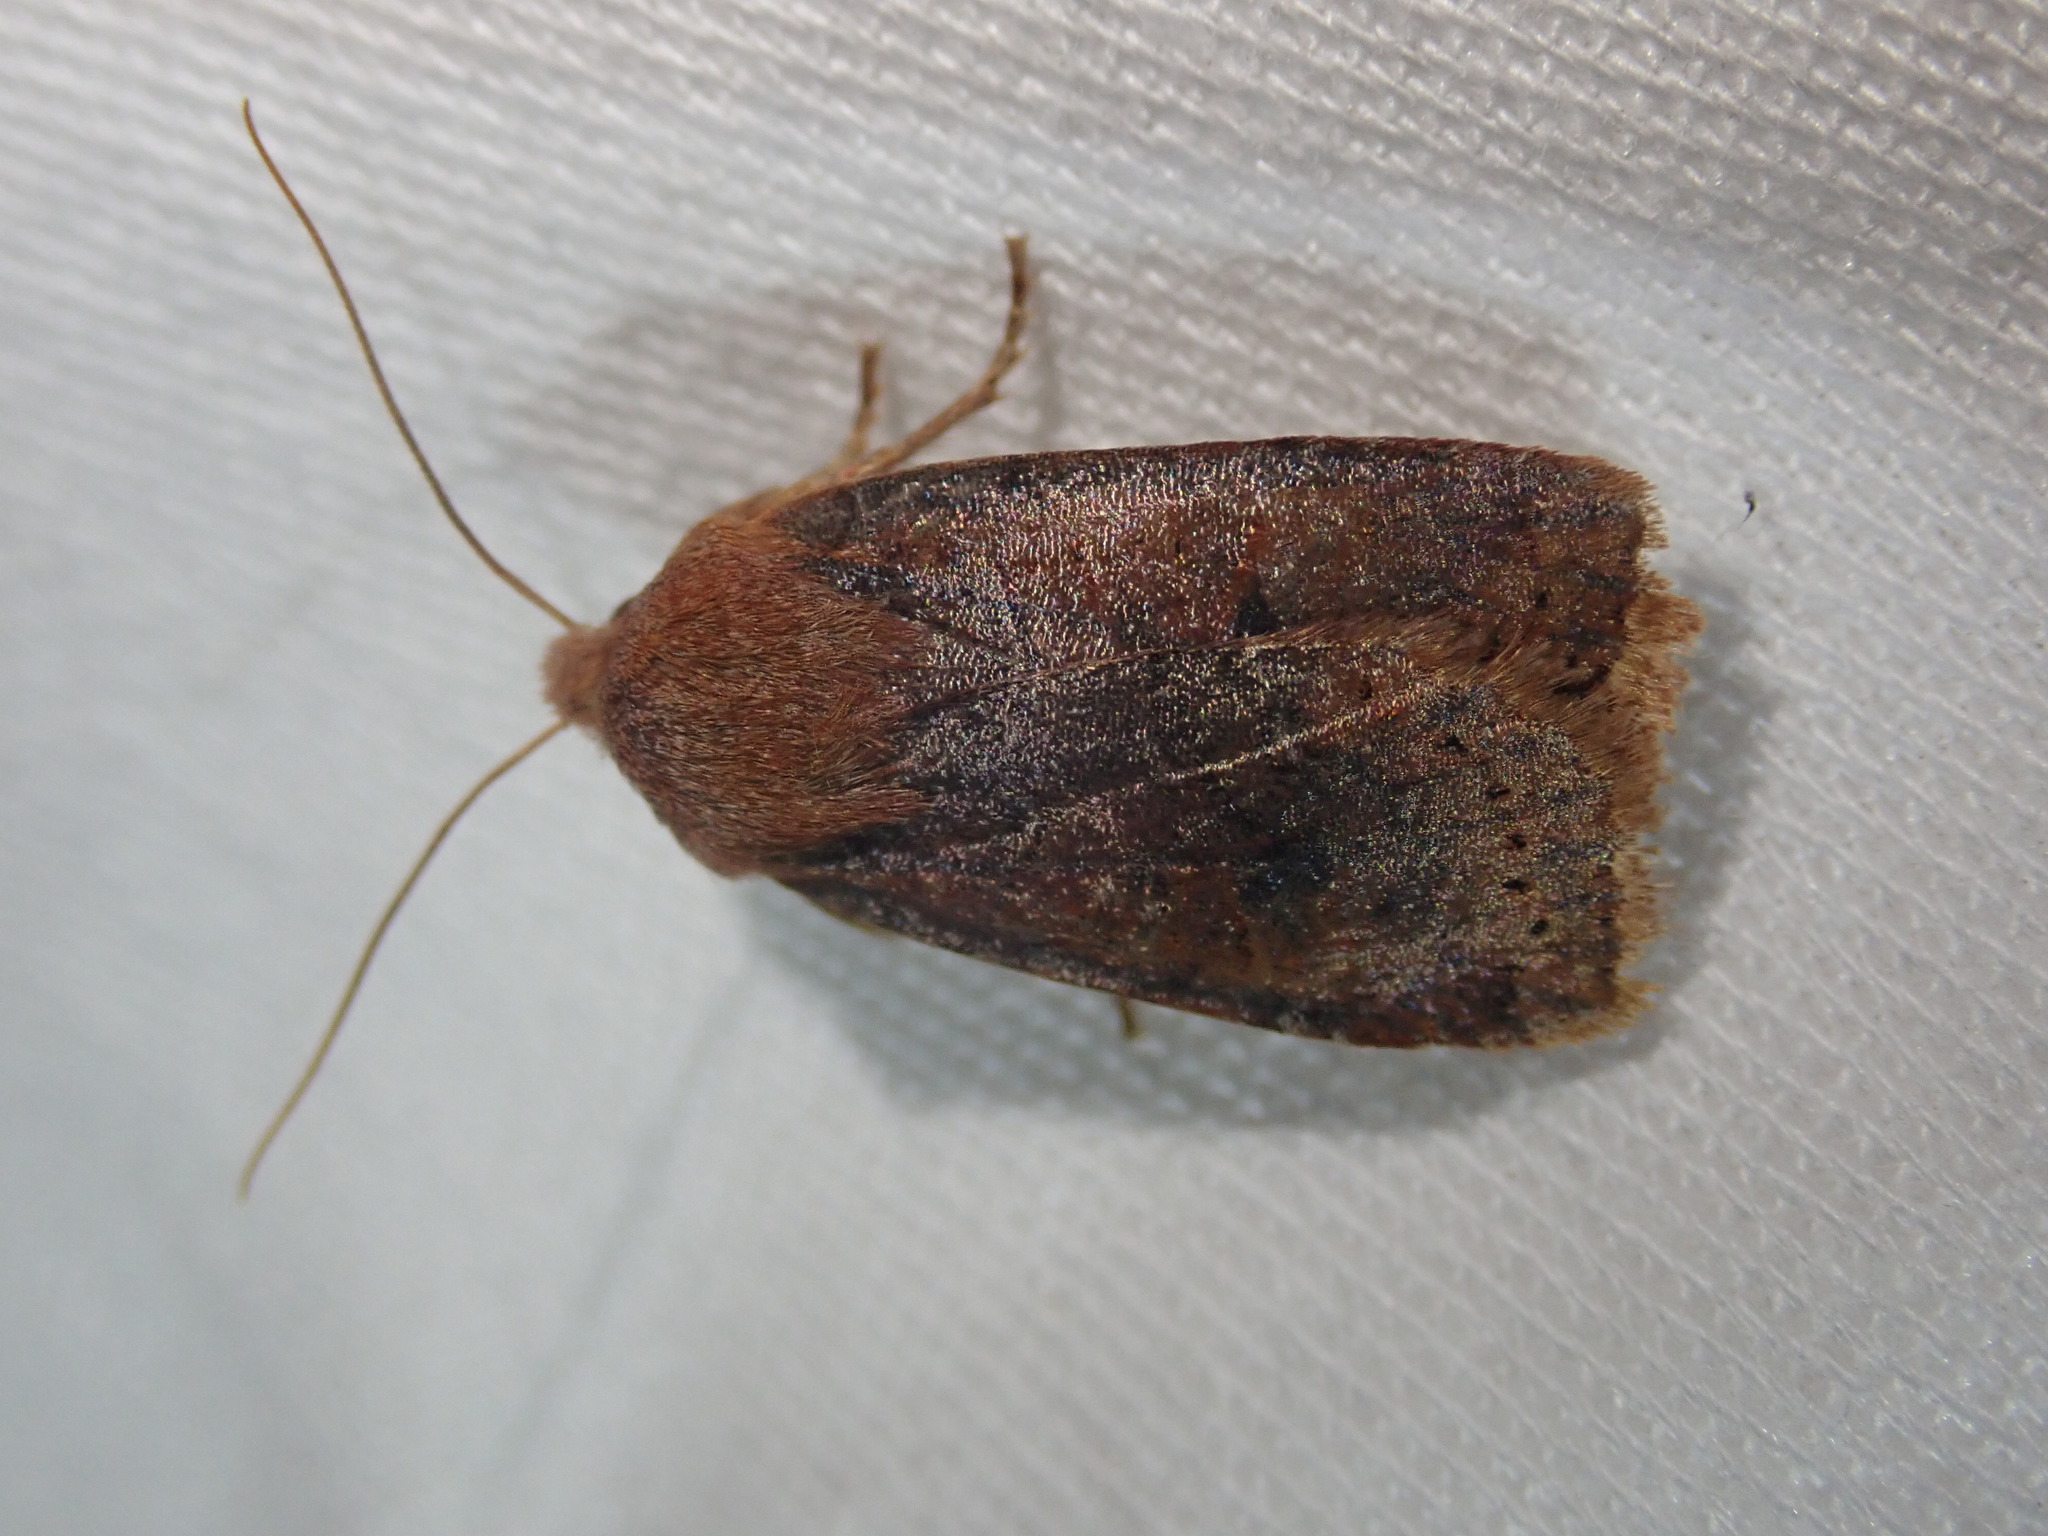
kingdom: Animalia
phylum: Arthropoda
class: Insecta
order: Lepidoptera
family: Noctuidae
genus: Conistra
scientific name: Conistra vaccinii
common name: Chestnut
